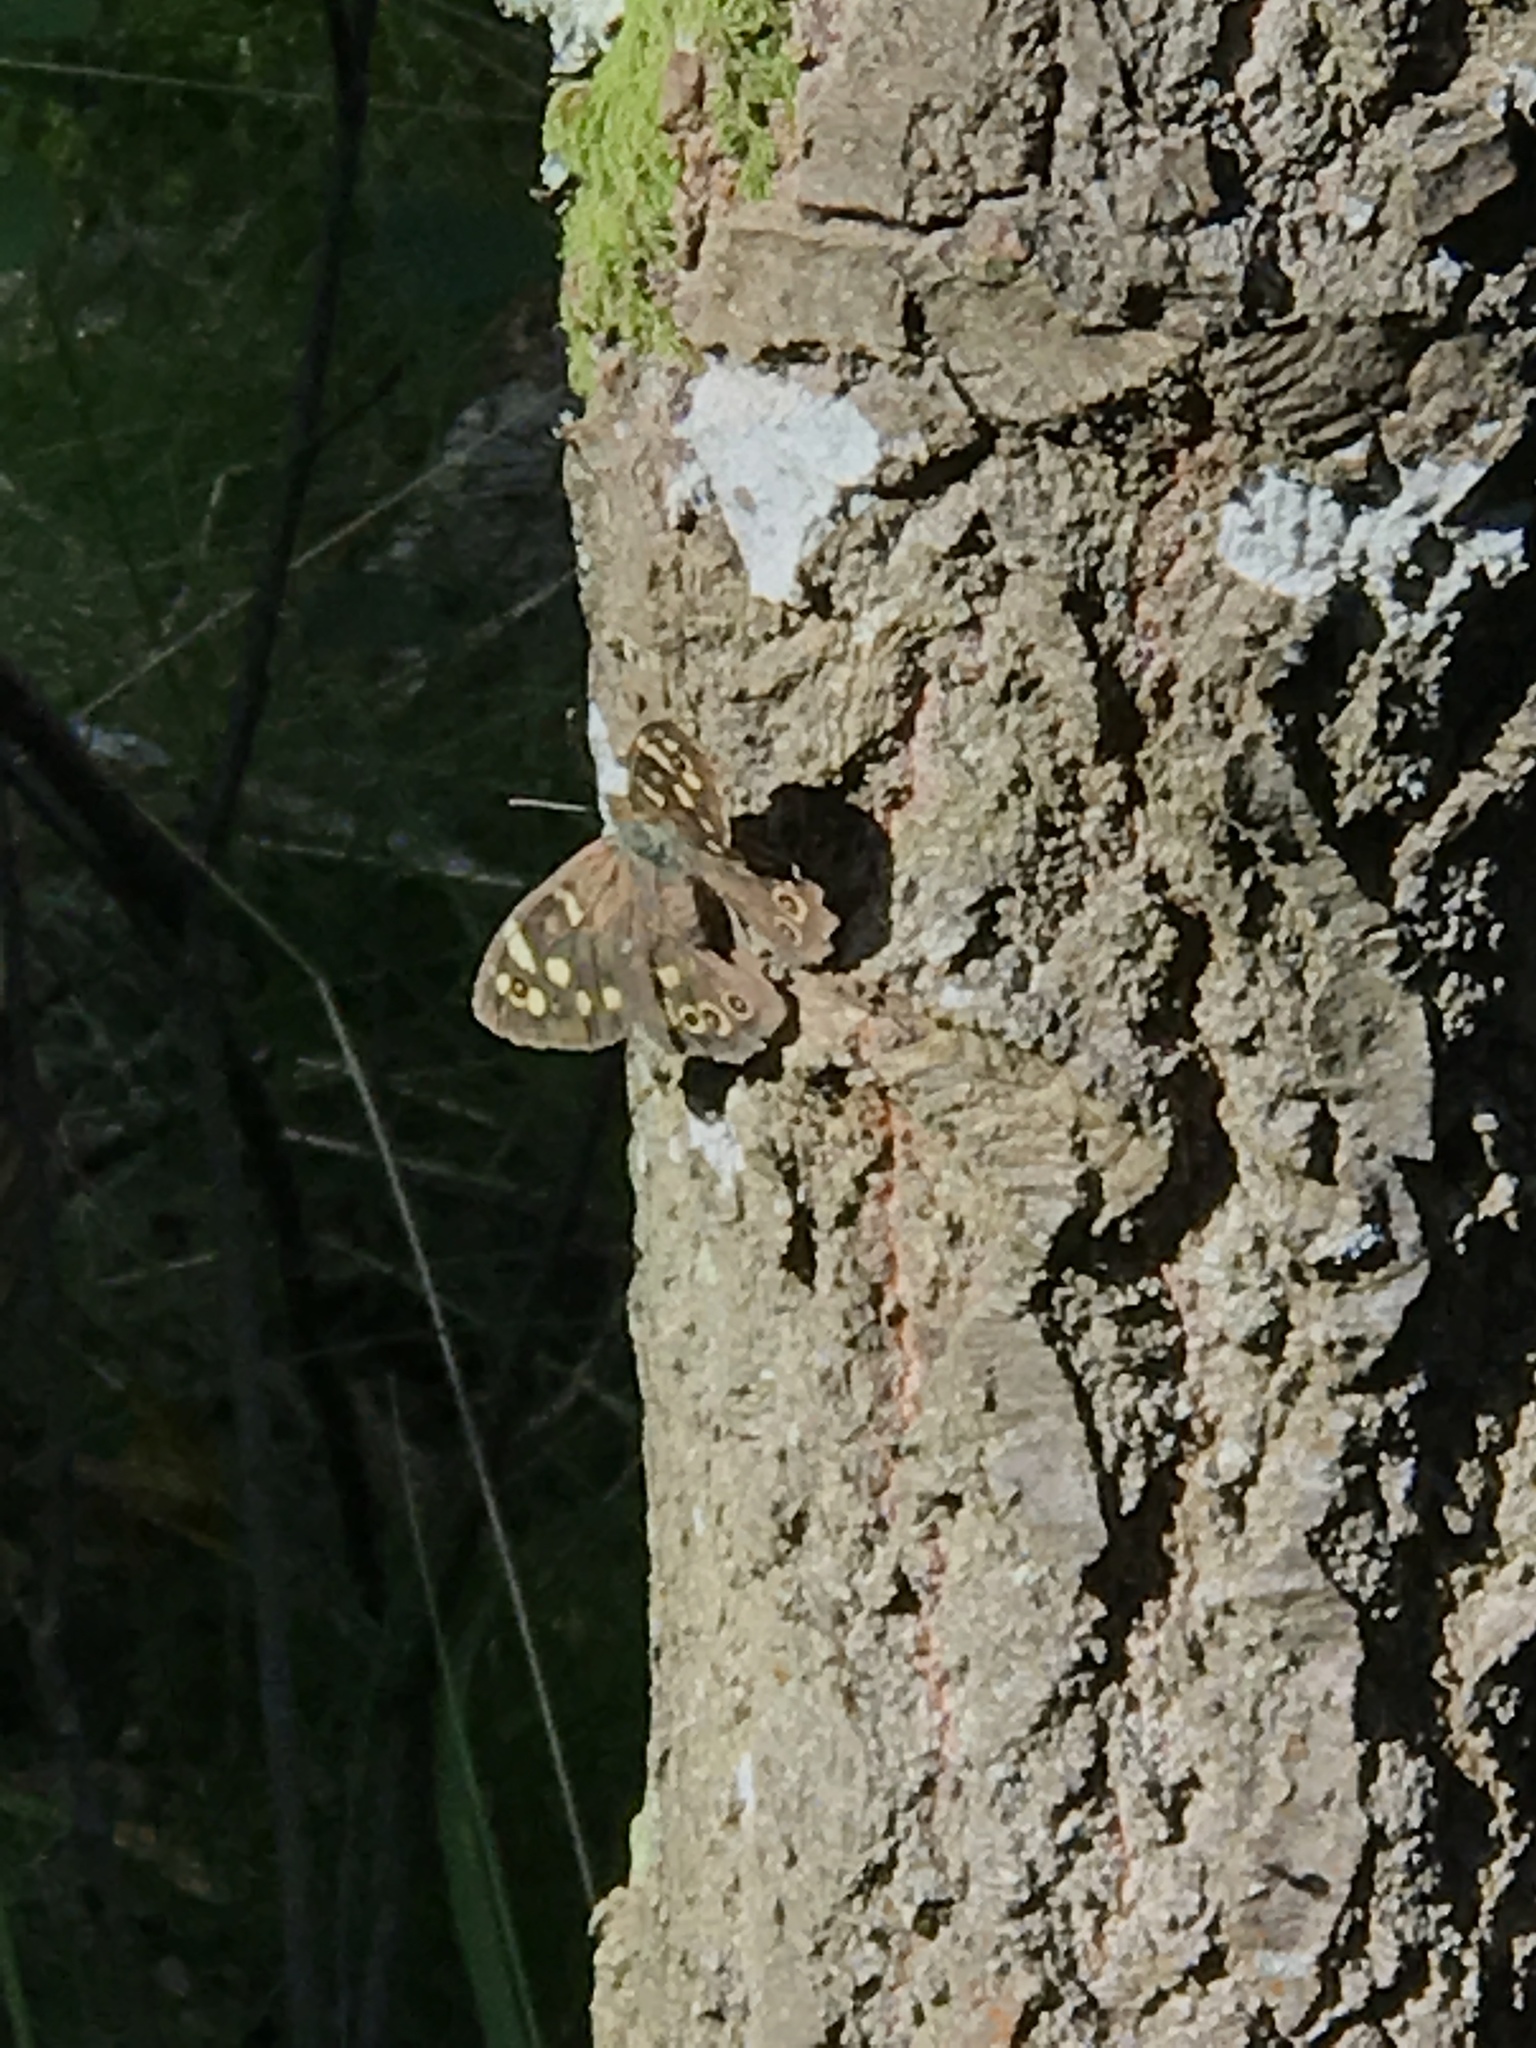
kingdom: Animalia
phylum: Arthropoda
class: Insecta
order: Lepidoptera
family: Nymphalidae
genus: Pararge
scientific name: Pararge aegeria
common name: Speckled wood
